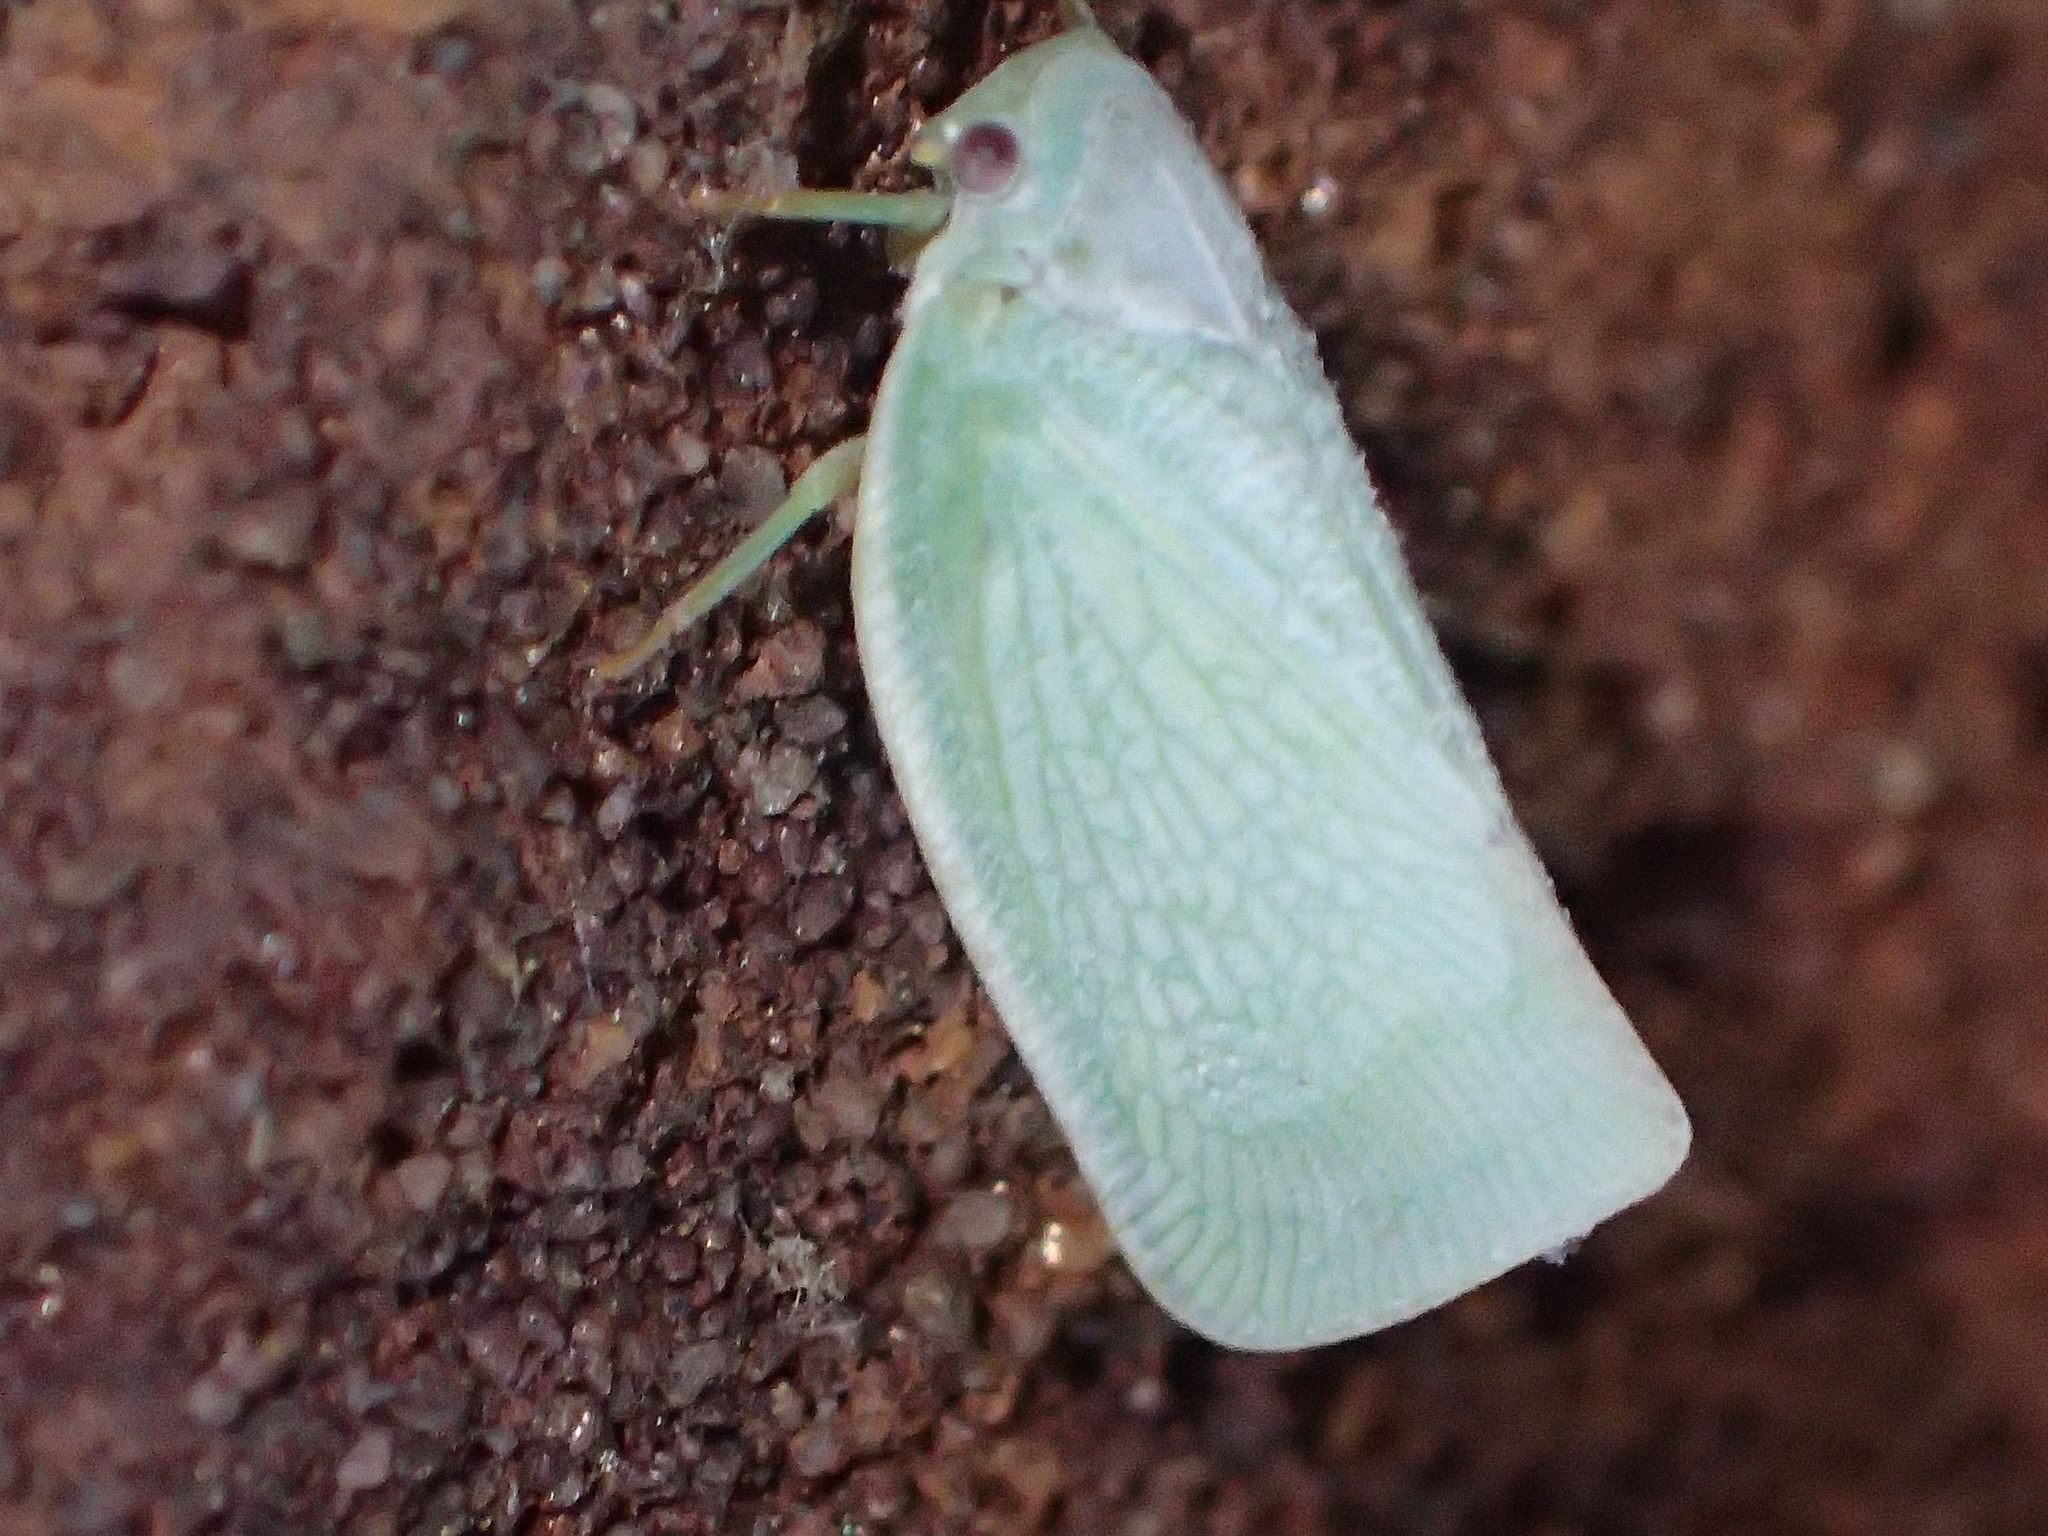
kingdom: Animalia
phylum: Arthropoda
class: Insecta
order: Hemiptera
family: Flatidae
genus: Flatormenis
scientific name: Flatormenis proxima
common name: Northern flatid planthopper
